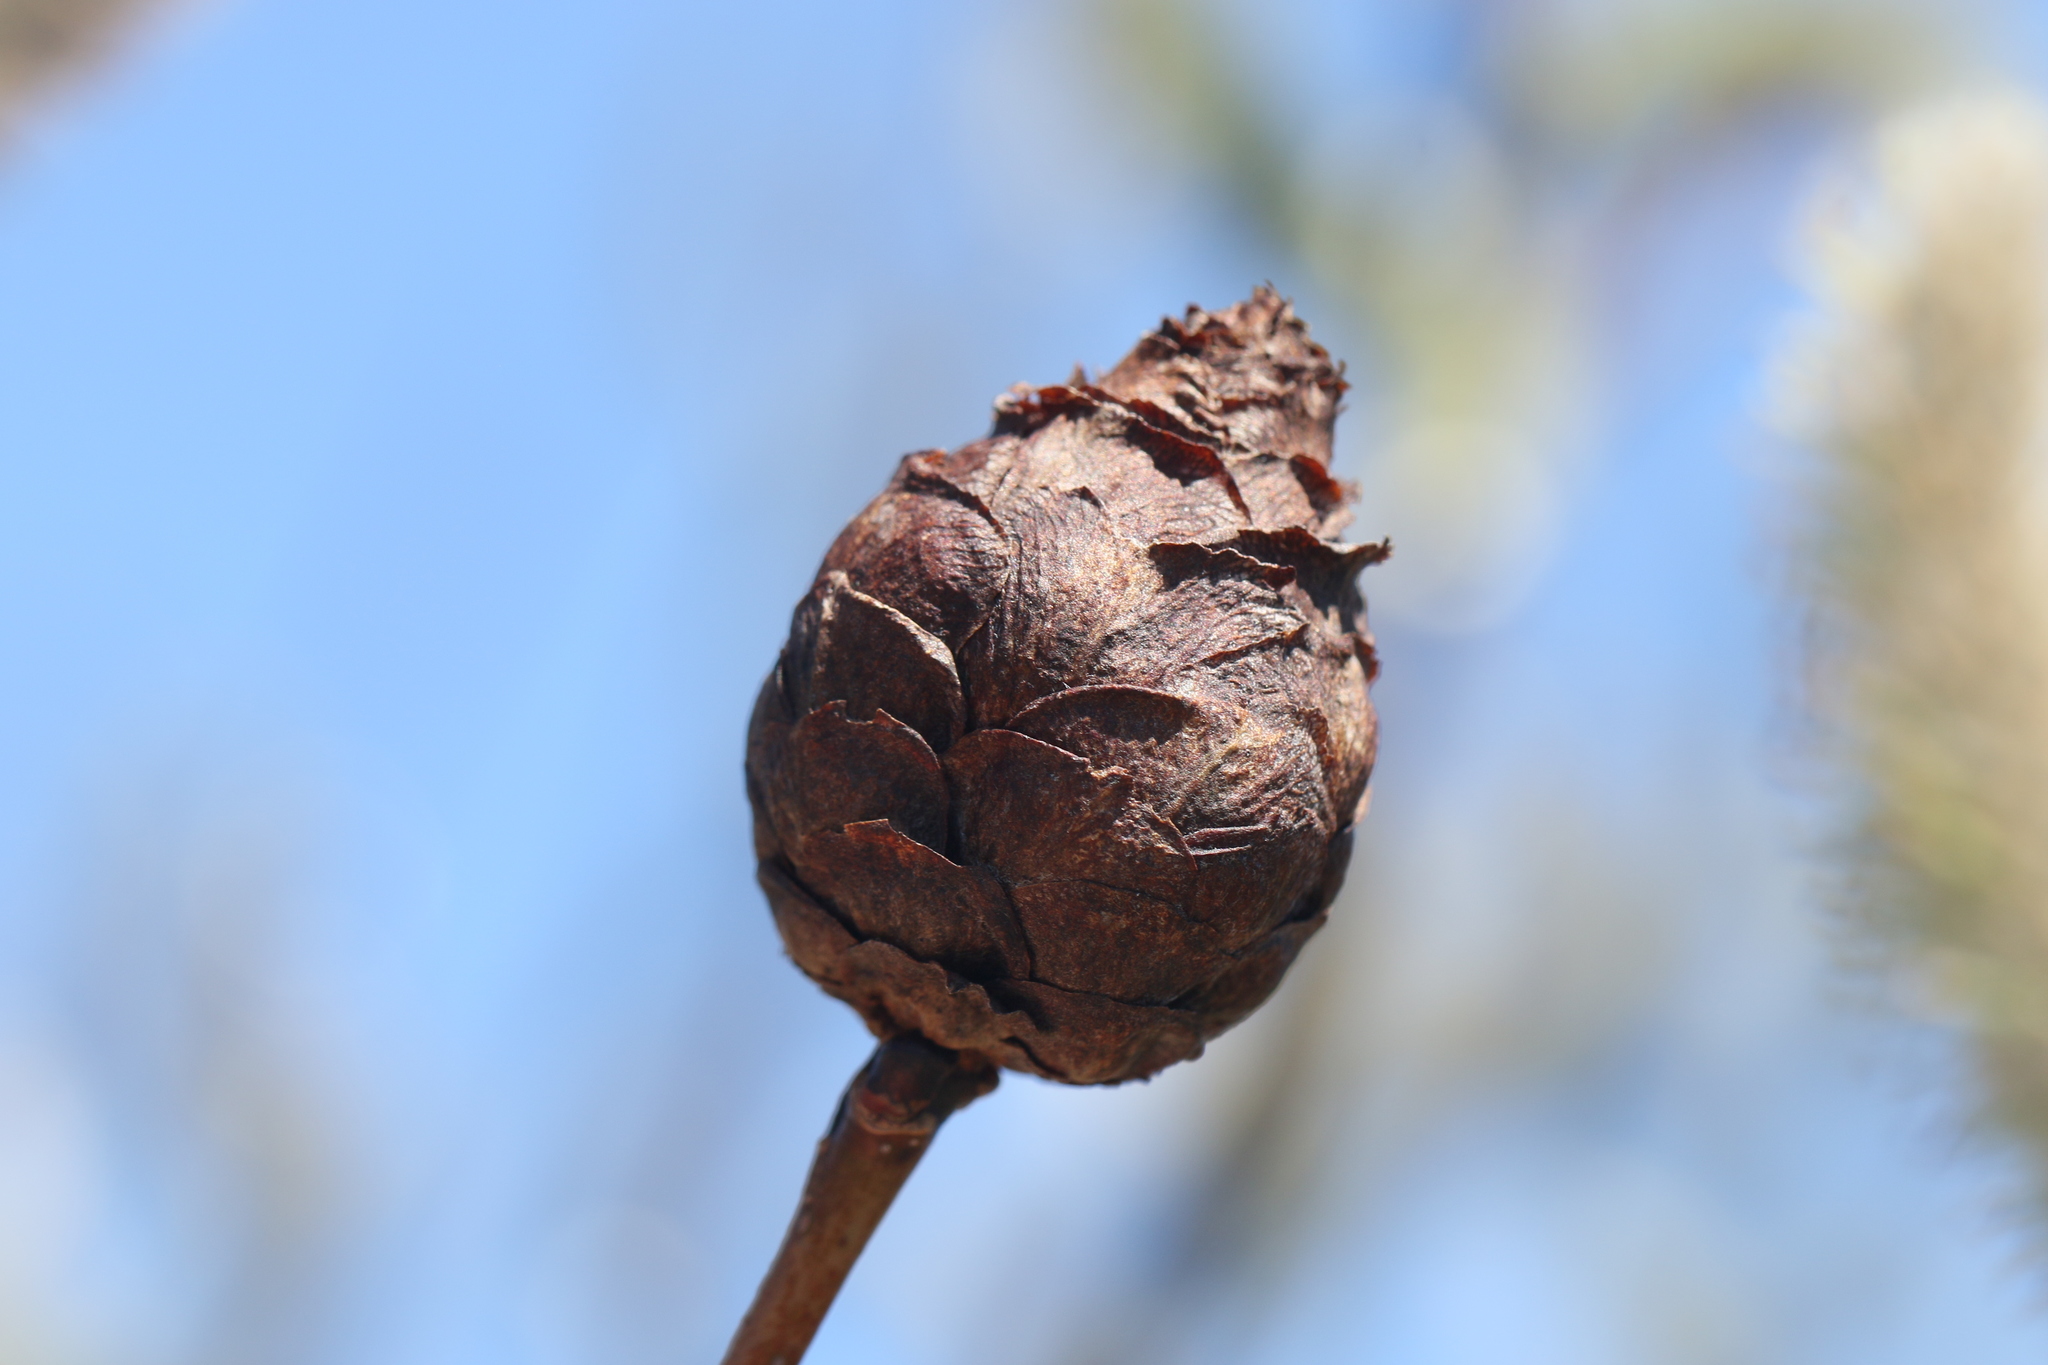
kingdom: Animalia
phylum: Arthropoda
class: Insecta
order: Diptera
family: Cecidomyiidae
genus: Rabdophaga
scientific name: Rabdophaga strobiloides
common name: Willow pinecone gall midge
